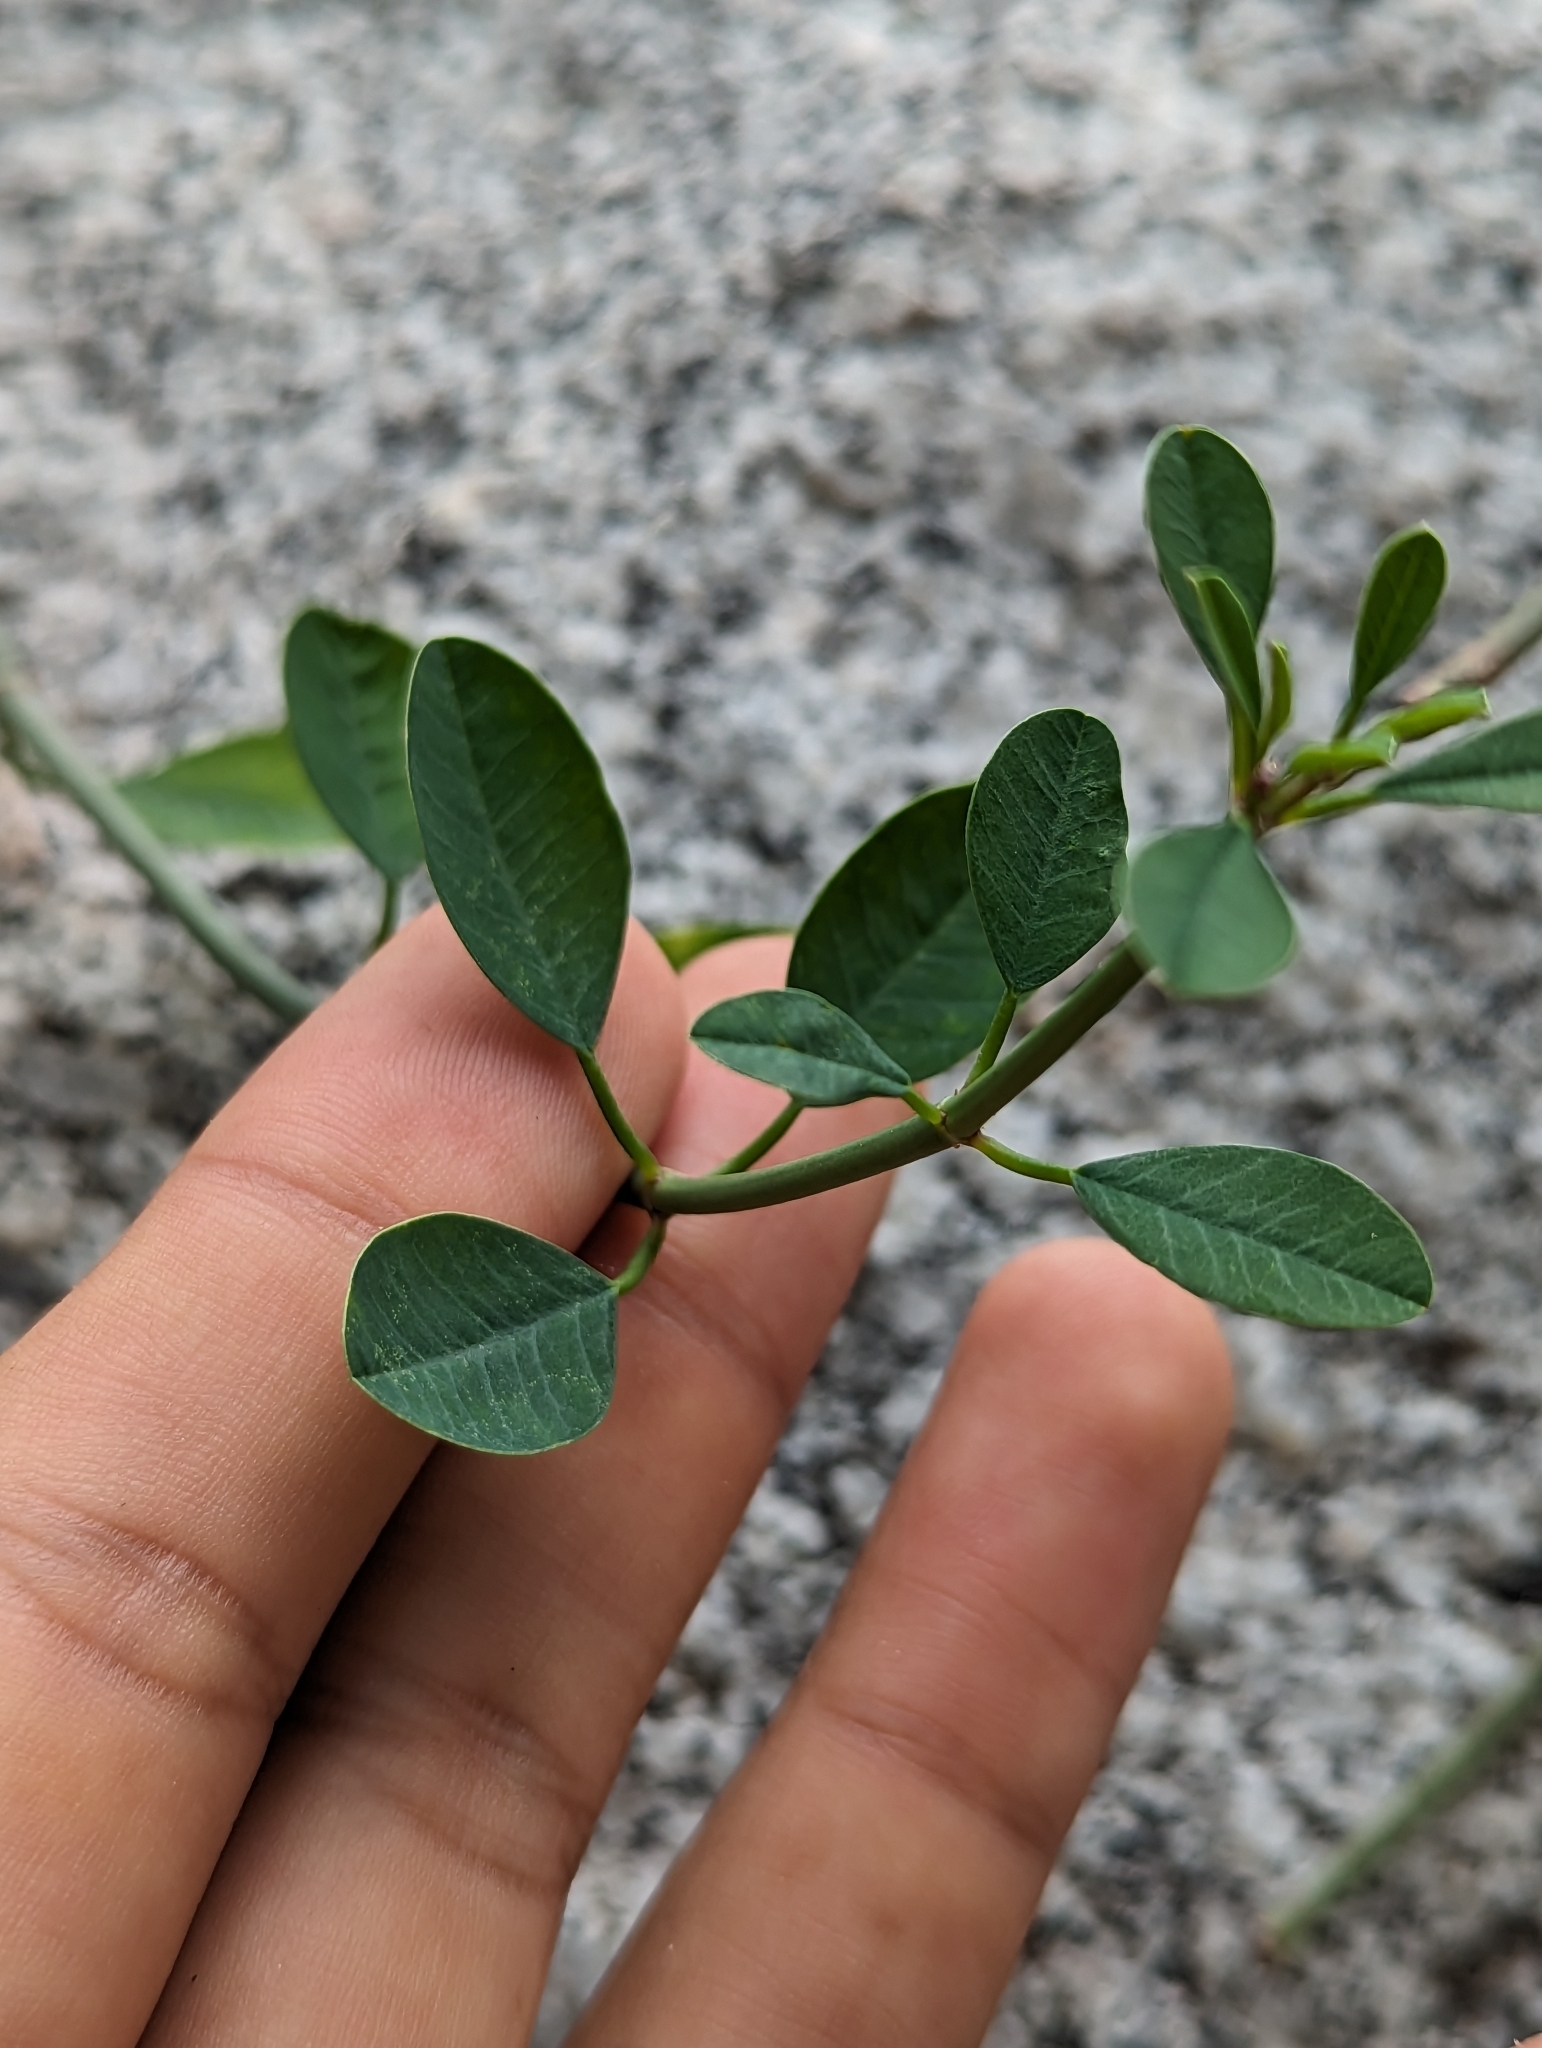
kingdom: Plantae
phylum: Tracheophyta
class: Magnoliopsida
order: Malpighiales
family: Euphorbiaceae
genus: Euphorbia
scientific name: Euphorbia xanti
